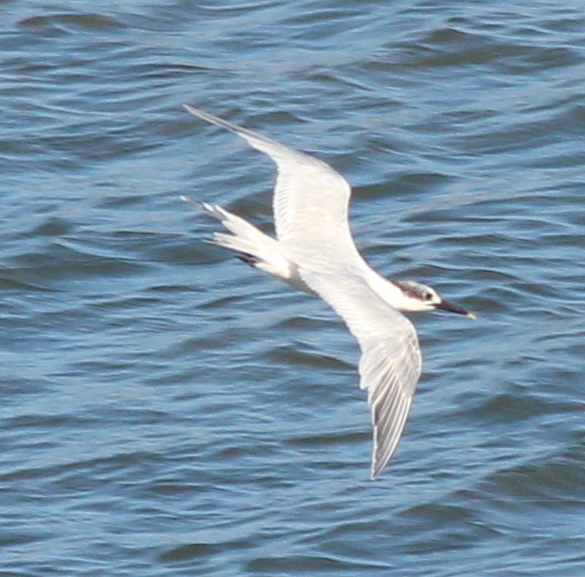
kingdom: Animalia
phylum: Chordata
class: Aves
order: Charadriiformes
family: Laridae
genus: Thalasseus
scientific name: Thalasseus sandvicensis
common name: Sandwich tern
